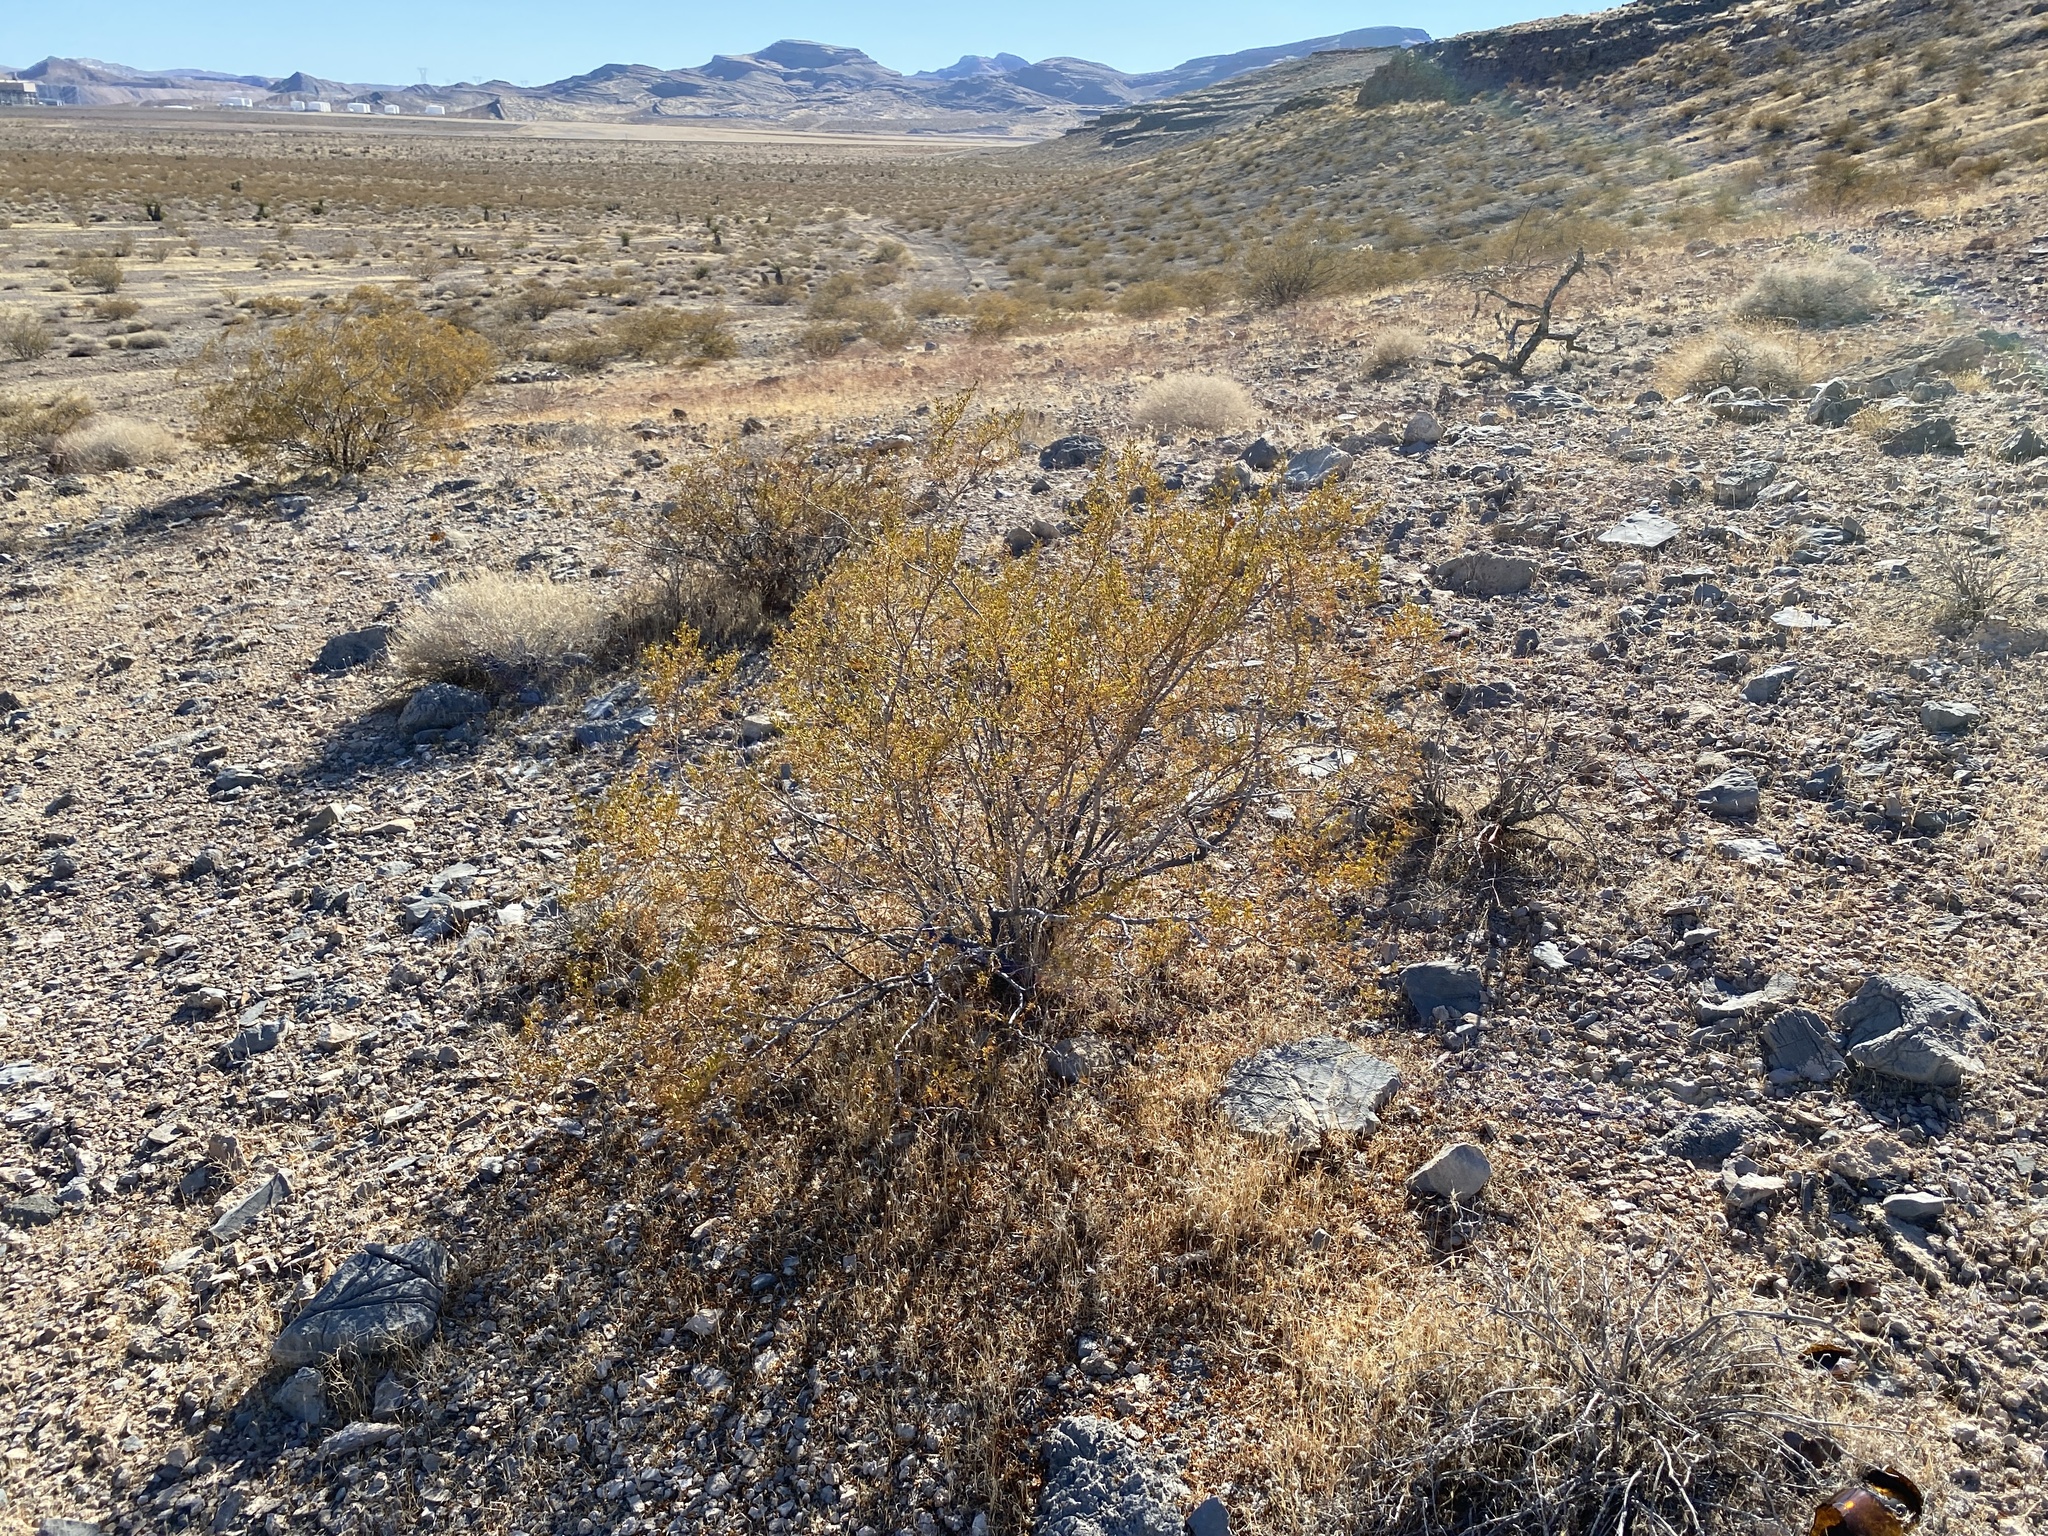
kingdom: Plantae
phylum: Tracheophyta
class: Magnoliopsida
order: Zygophyllales
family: Zygophyllaceae
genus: Larrea
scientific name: Larrea tridentata
